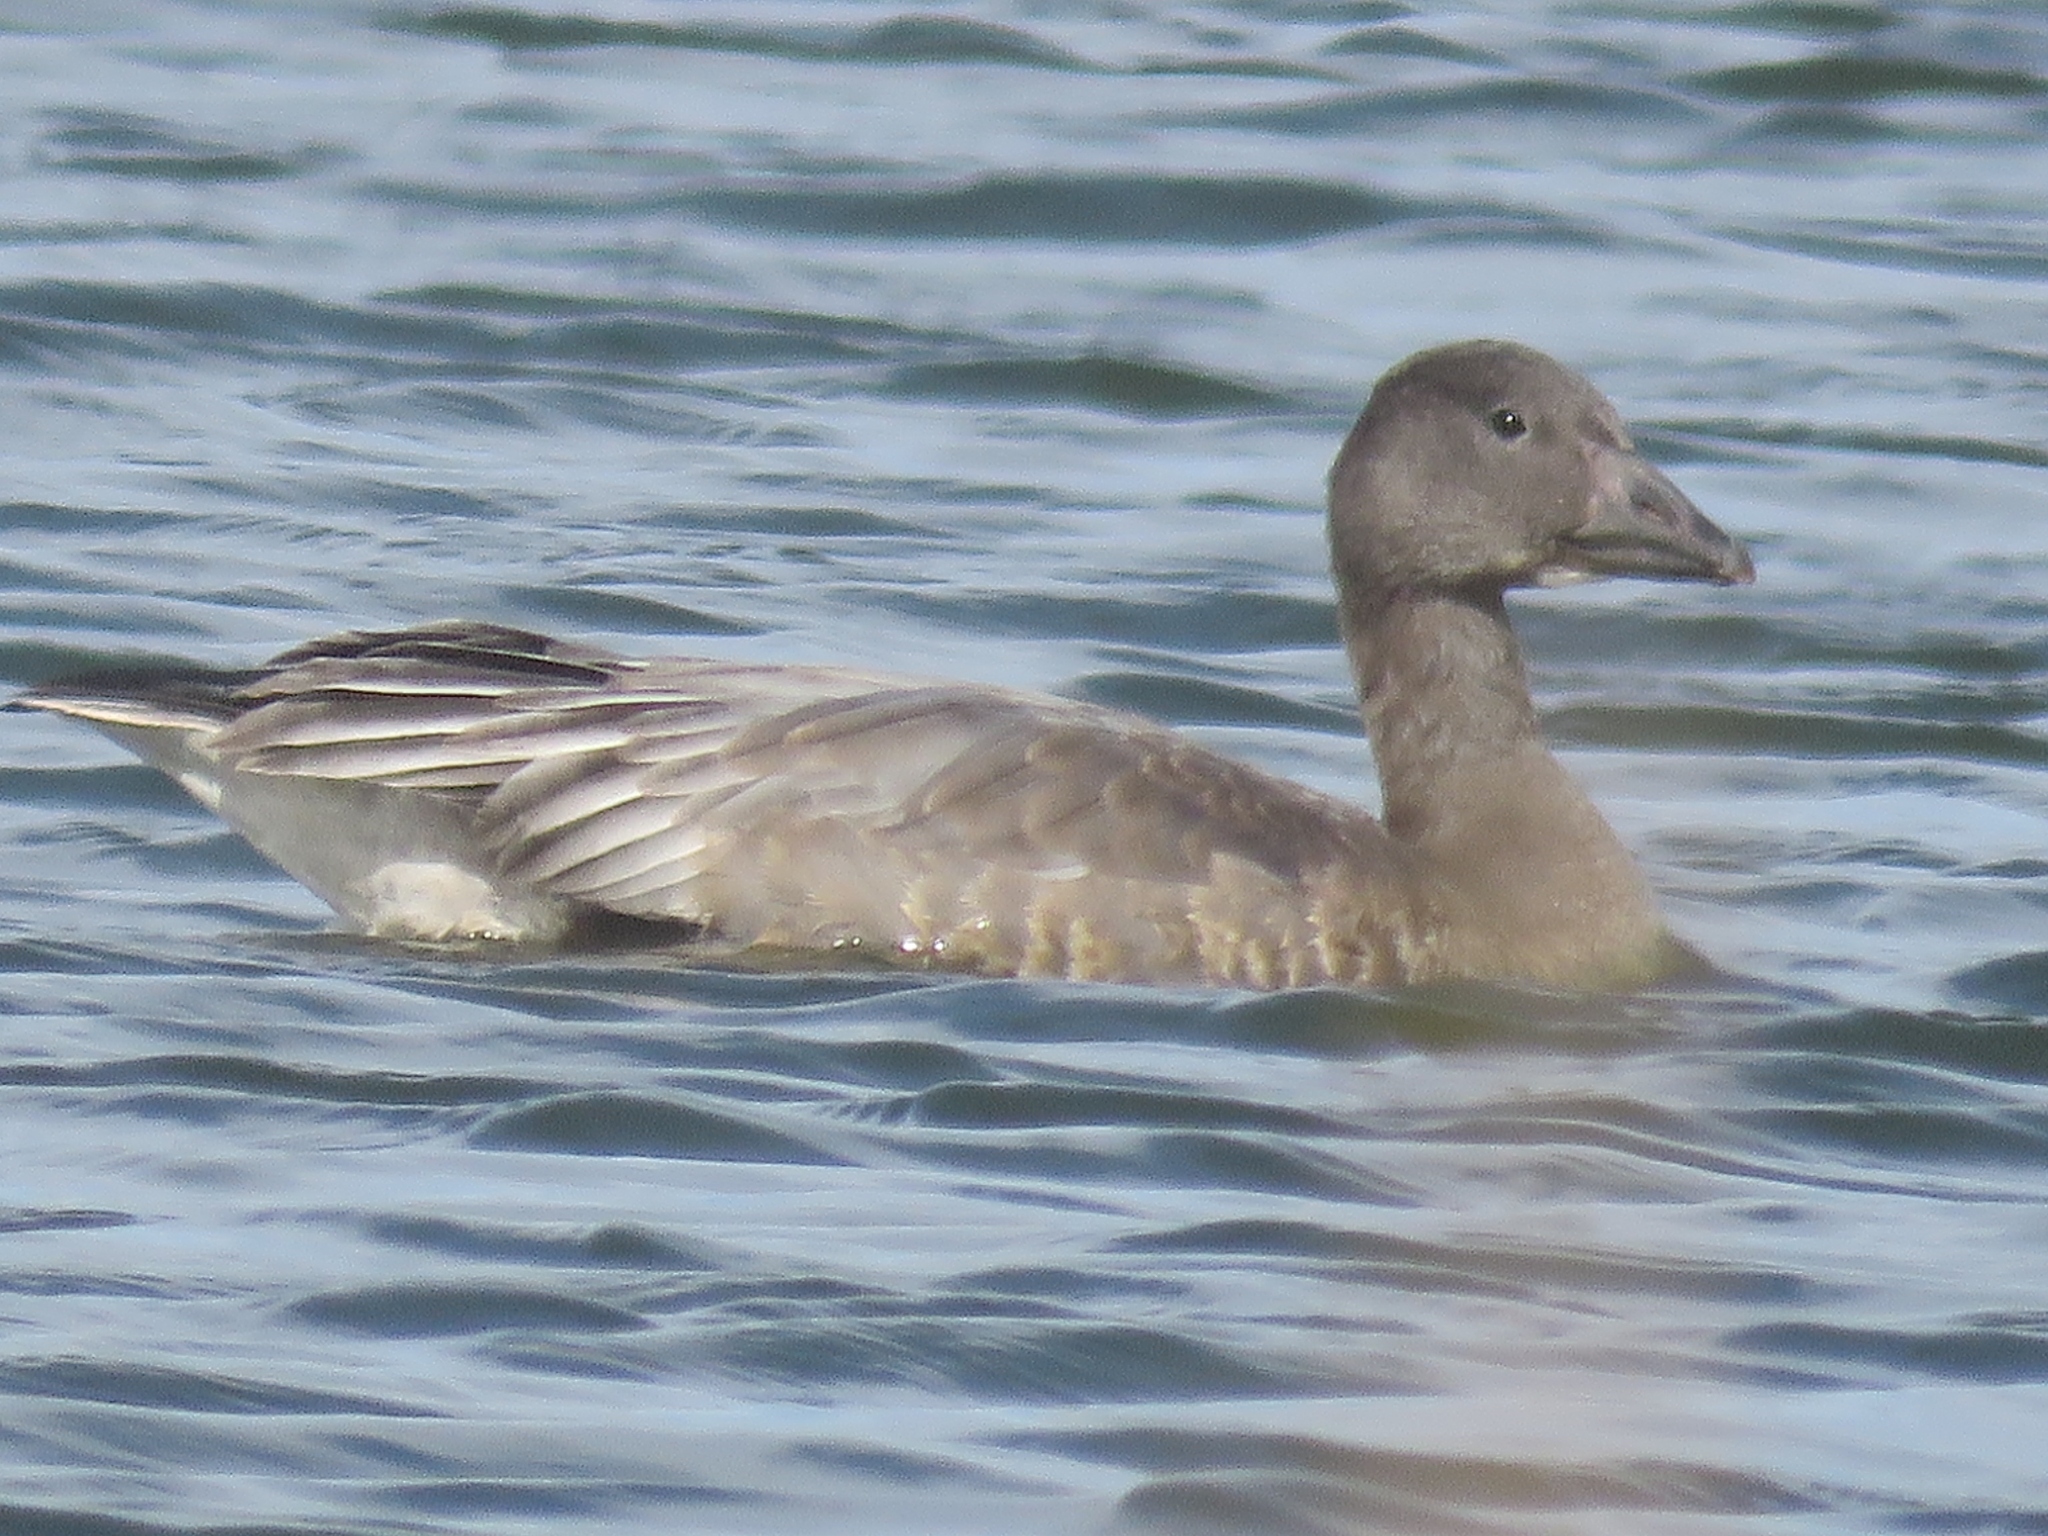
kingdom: Animalia
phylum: Chordata
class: Aves
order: Anseriformes
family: Anatidae
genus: Anser
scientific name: Anser caerulescens
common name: Snow goose
